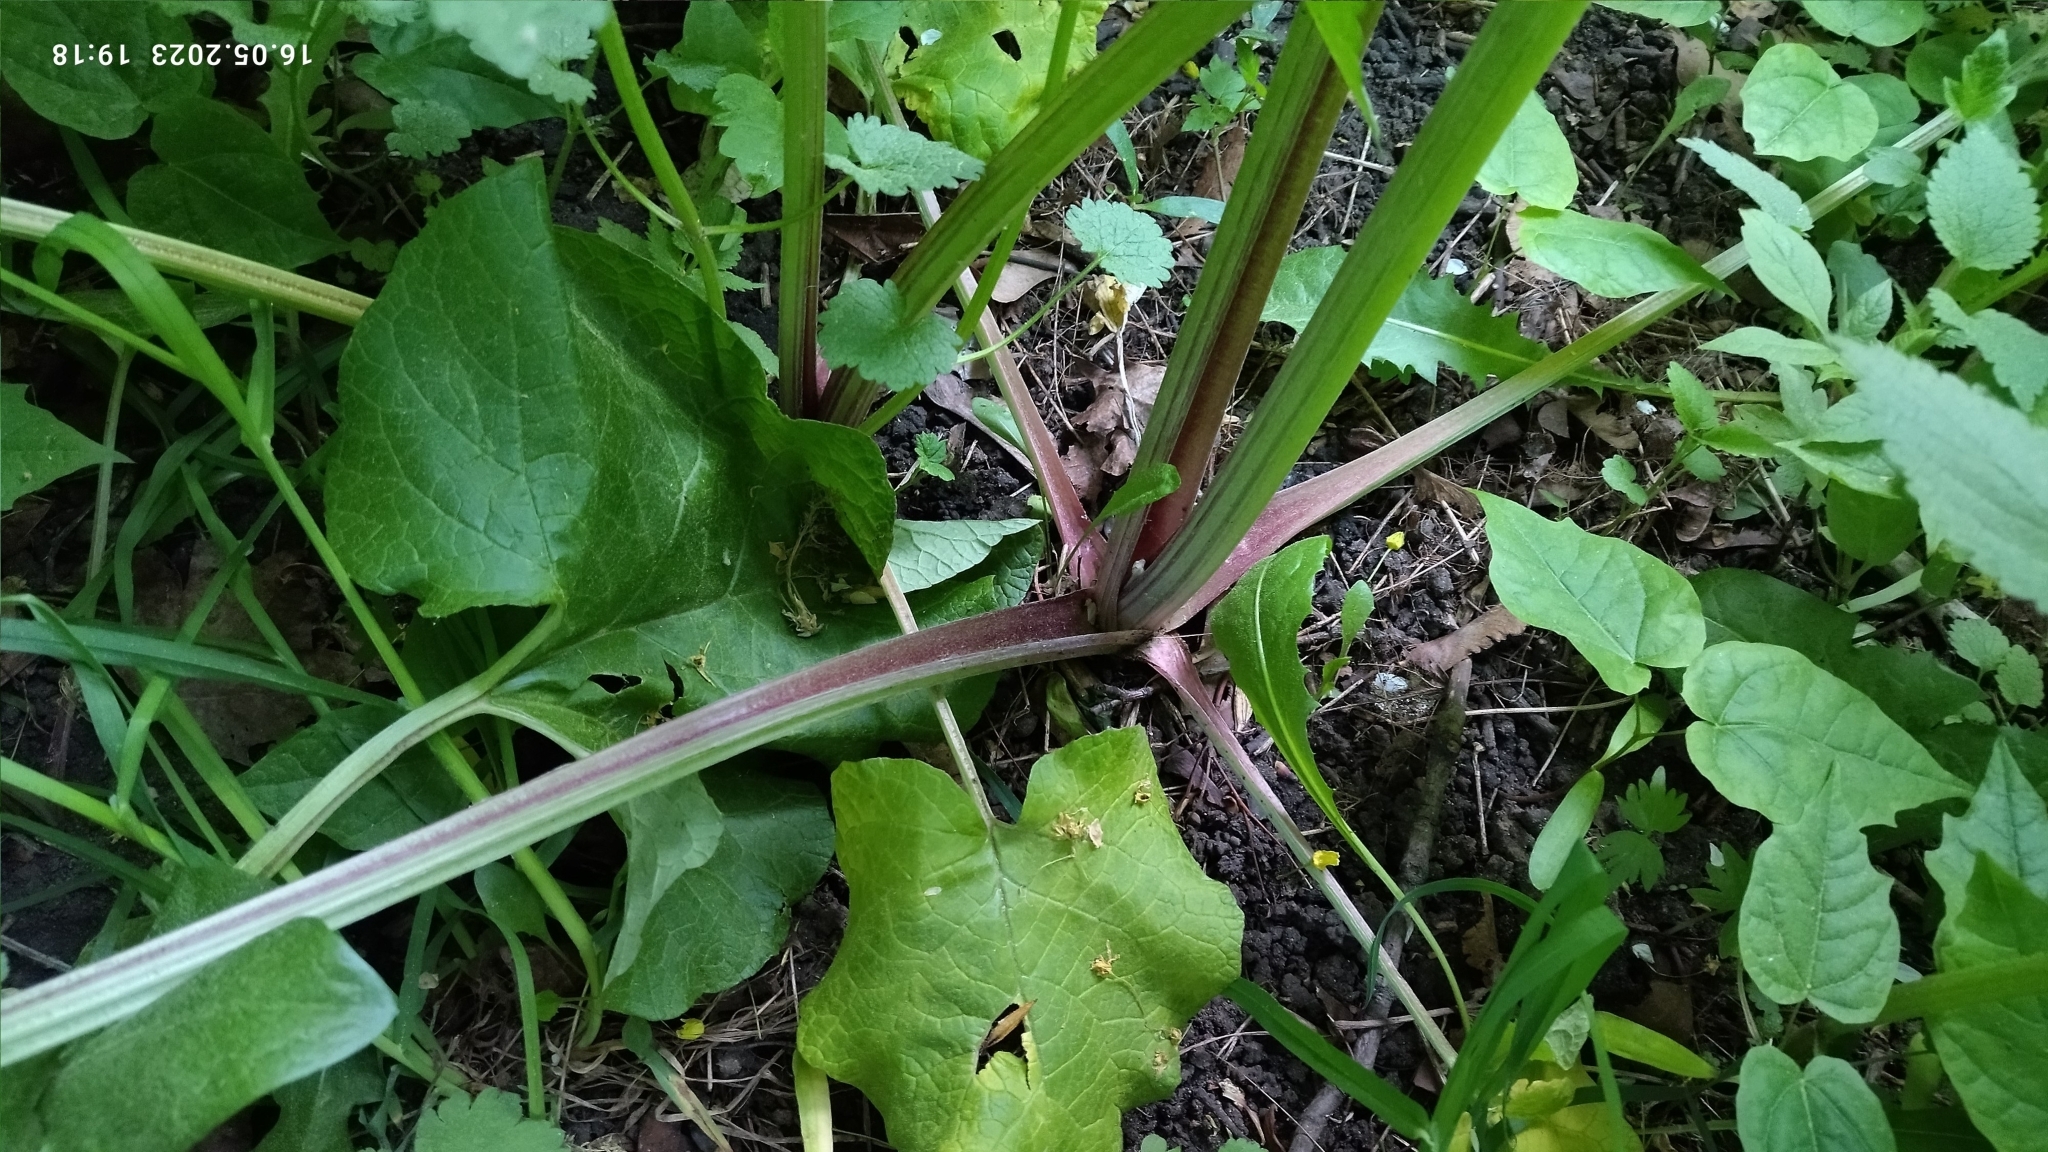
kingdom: Plantae
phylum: Tracheophyta
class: Magnoliopsida
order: Asterales
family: Asteraceae
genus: Arctium
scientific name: Arctium
